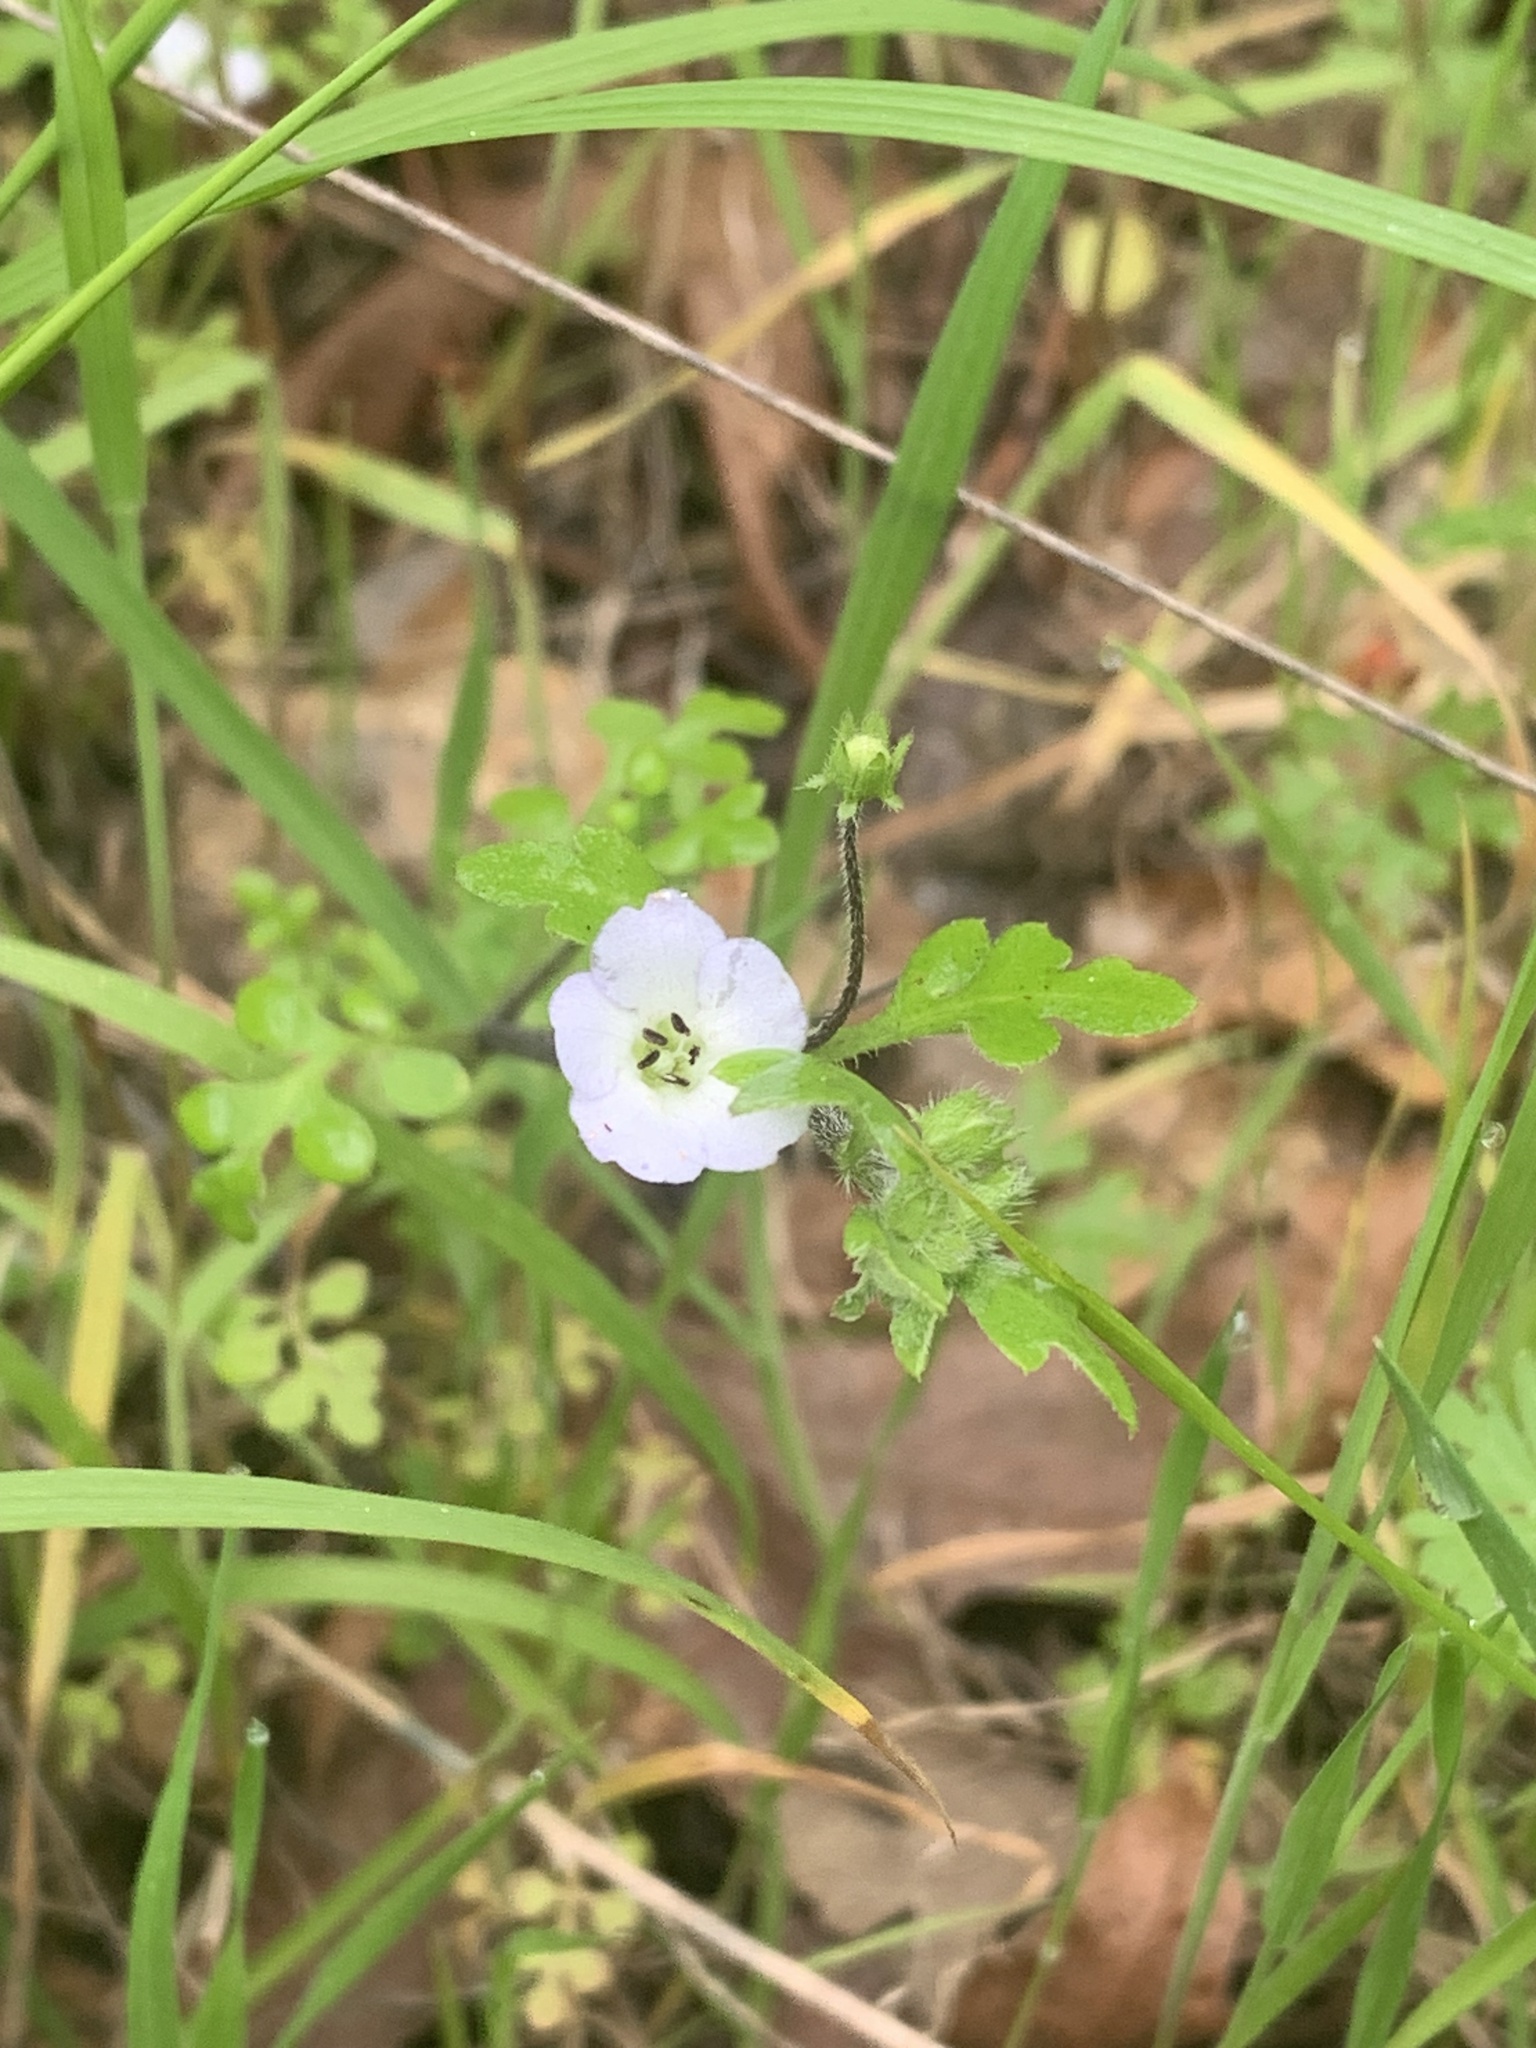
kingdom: Plantae
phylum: Tracheophyta
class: Magnoliopsida
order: Boraginales
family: Hydrophyllaceae
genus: Nemophila
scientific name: Nemophila heterophylla
